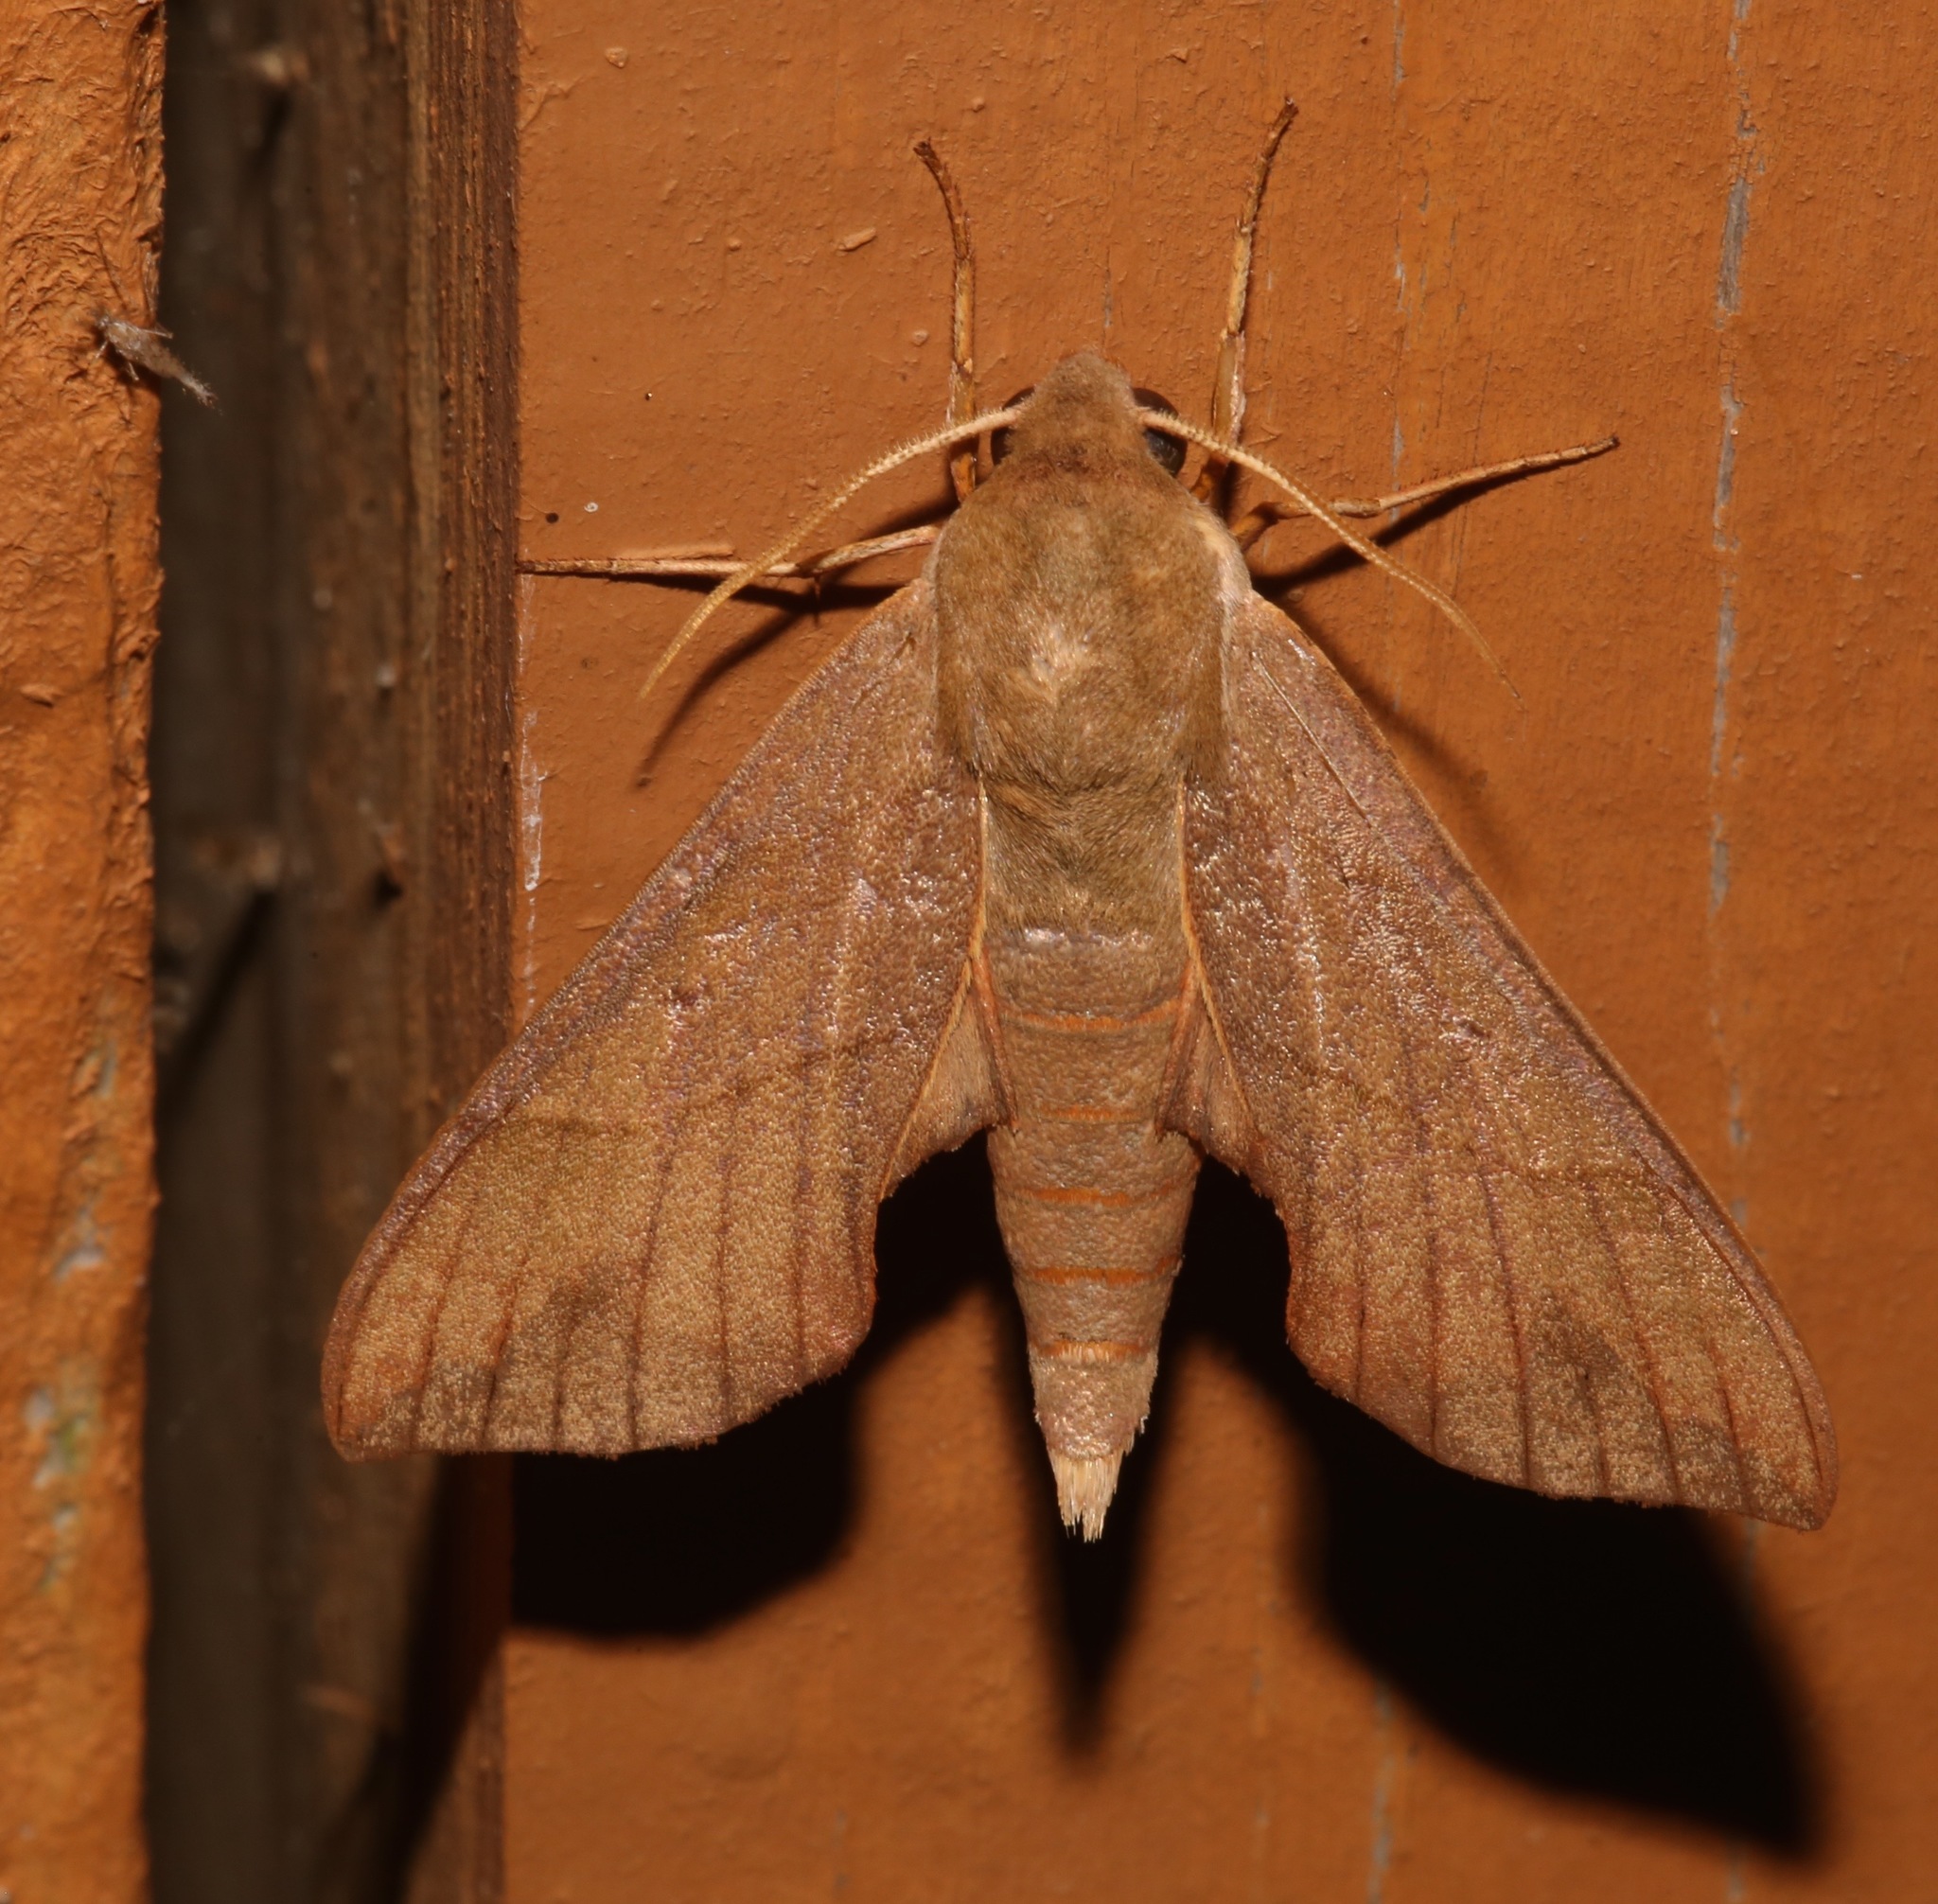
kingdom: Animalia
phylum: Arthropoda
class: Insecta
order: Lepidoptera
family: Sphingidae
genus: Darapsa
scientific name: Darapsa myron
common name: Hog sphinx
